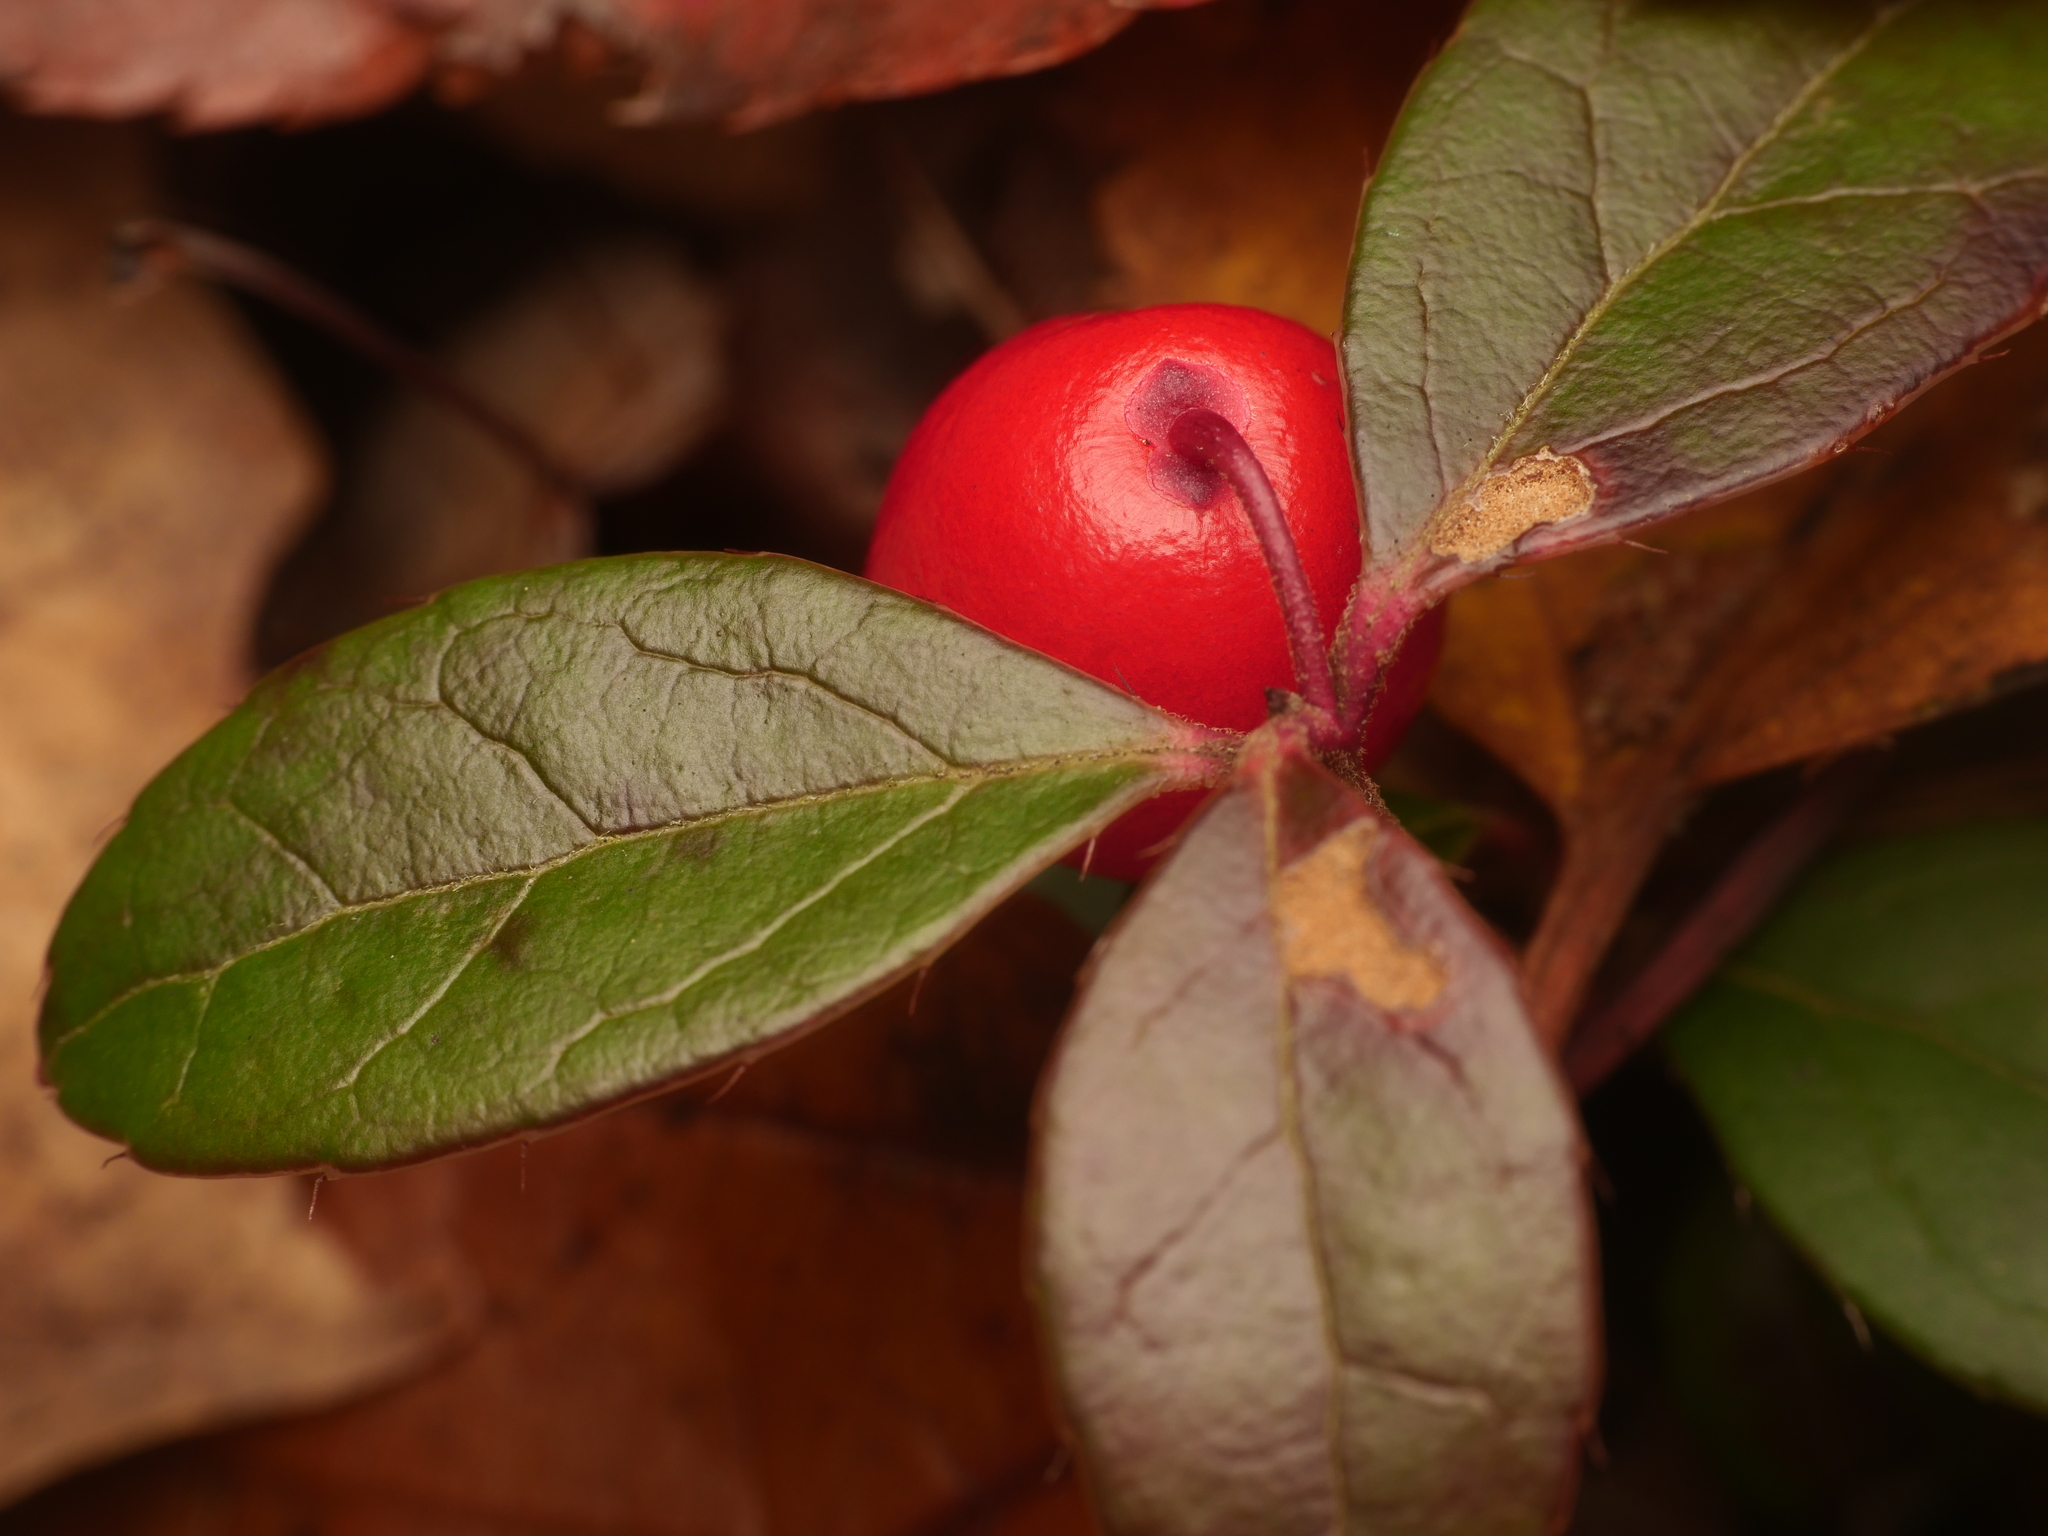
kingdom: Plantae
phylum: Tracheophyta
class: Magnoliopsida
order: Ericales
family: Ericaceae
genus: Gaultheria
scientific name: Gaultheria procumbens
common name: Checkerberry
